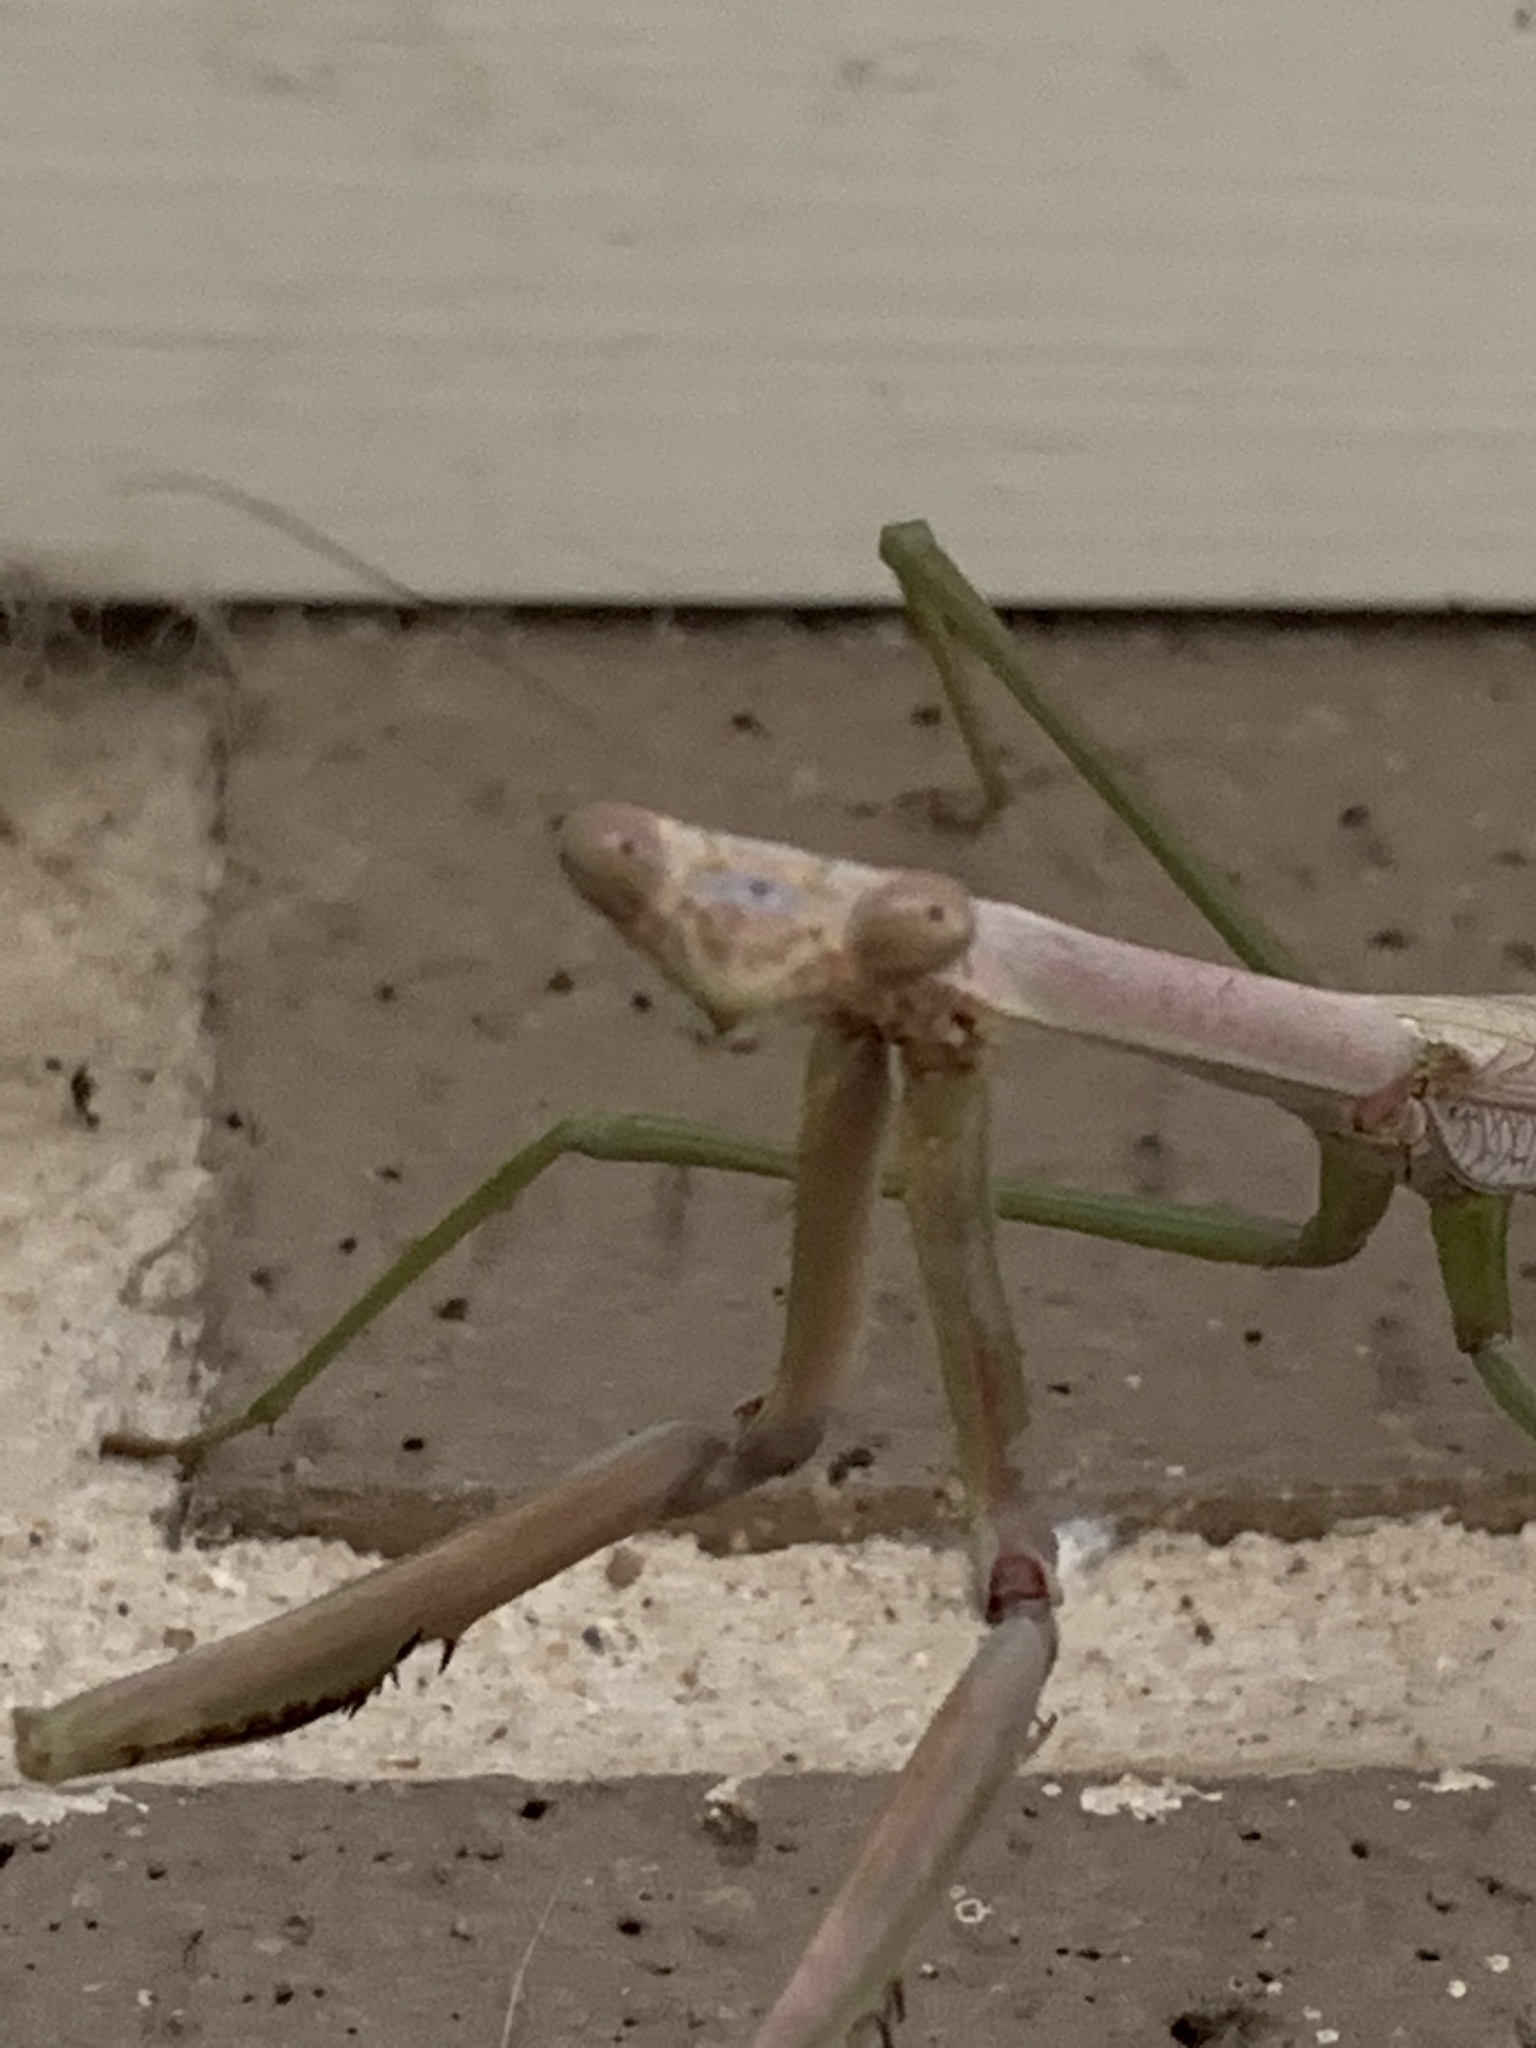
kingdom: Animalia
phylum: Arthropoda
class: Insecta
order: Mantodea
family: Mantidae
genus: Archimantis
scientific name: Archimantis latistyla
